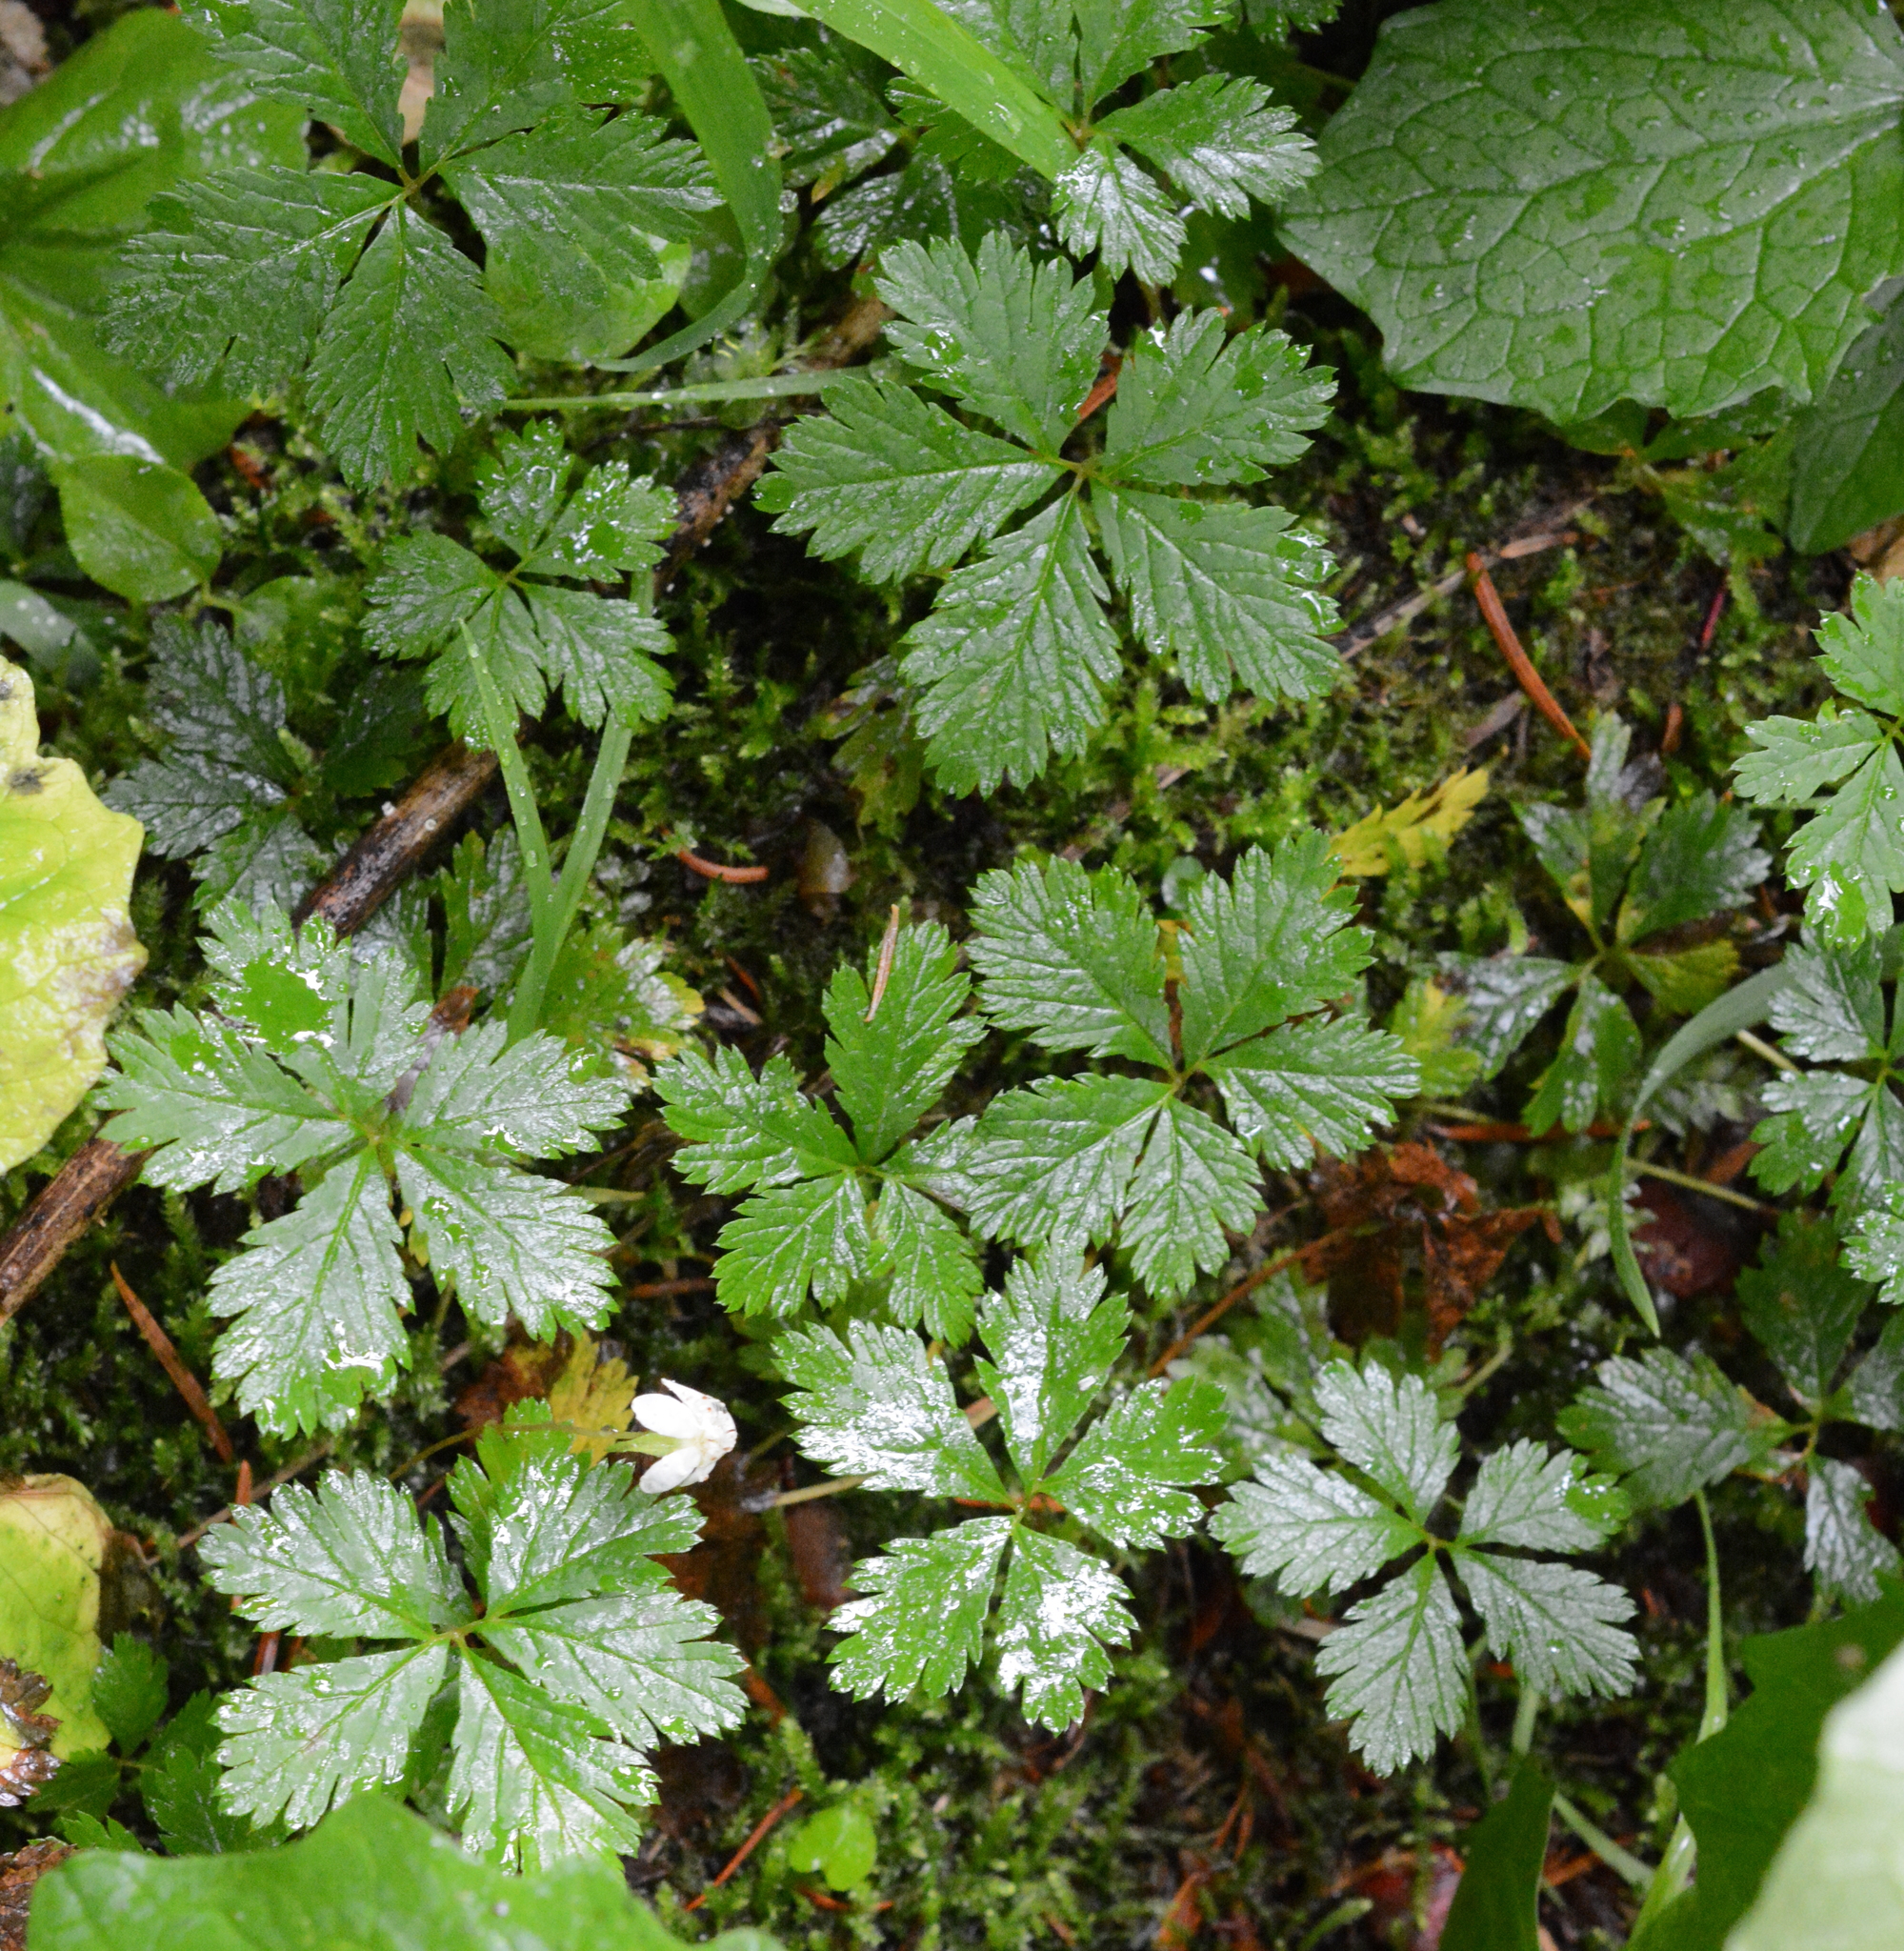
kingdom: Plantae
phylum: Tracheophyta
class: Magnoliopsida
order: Rosales
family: Rosaceae
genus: Rubus
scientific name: Rubus pedatus
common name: Creeping raspberry
